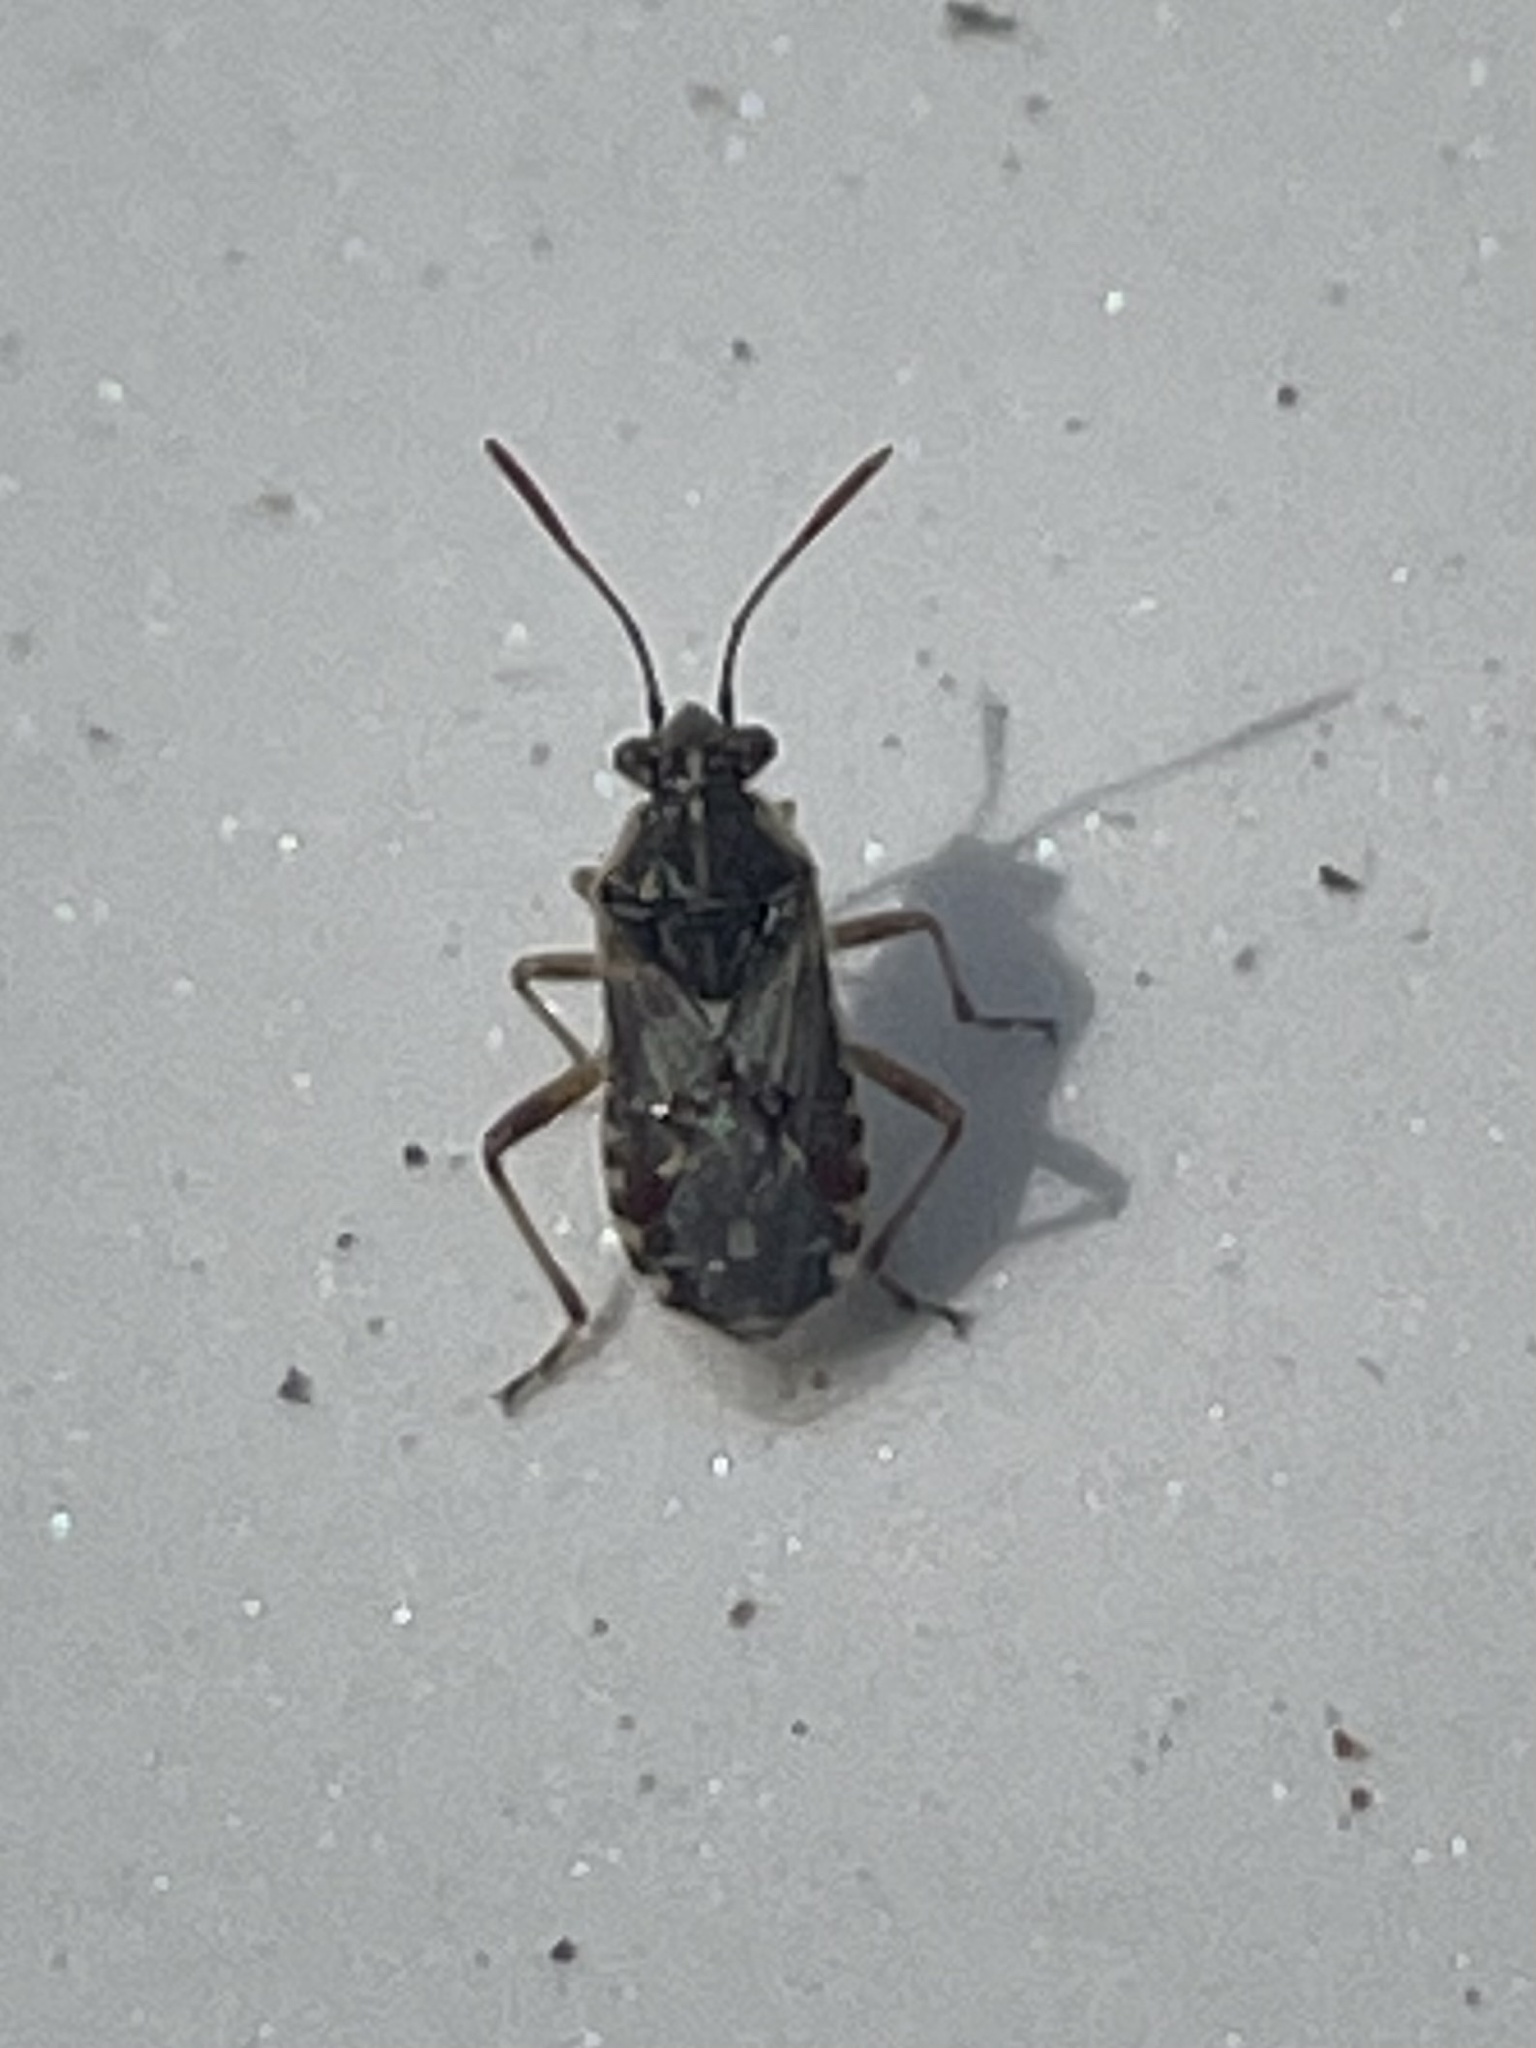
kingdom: Animalia
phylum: Arthropoda
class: Insecta
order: Hemiptera
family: Rhopalidae
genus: Liorhyssus
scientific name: Liorhyssus hyalinus
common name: Scentless plant bug
